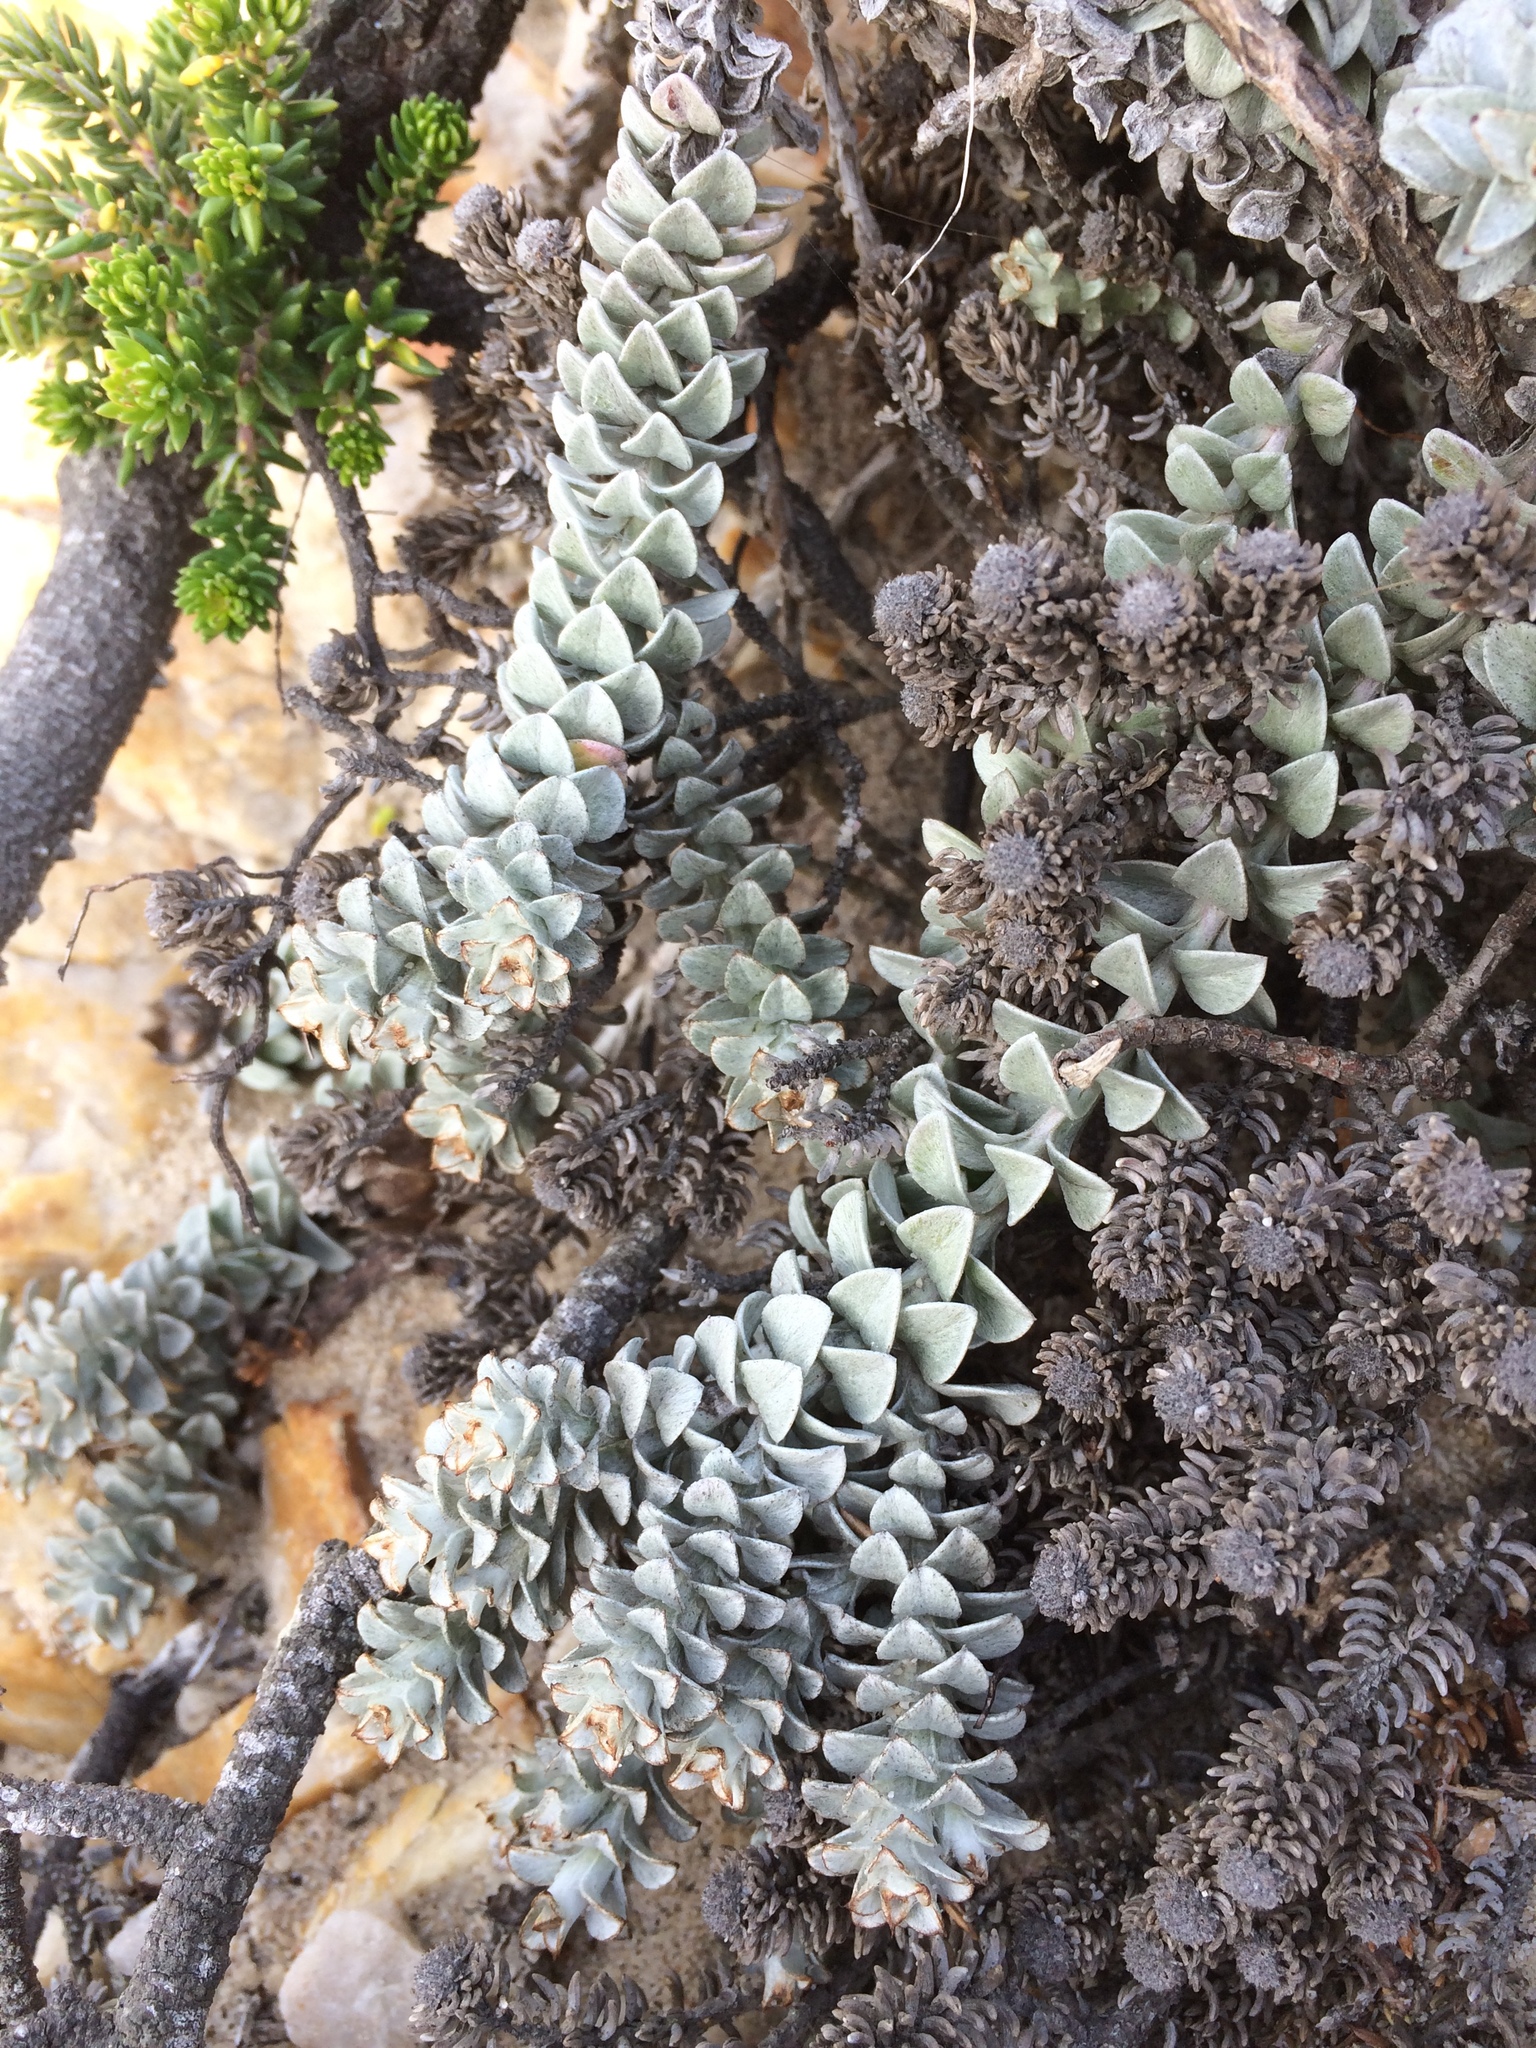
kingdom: Plantae
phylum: Tracheophyta
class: Magnoliopsida
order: Asterales
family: Asteraceae
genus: Helichrysum
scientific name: Helichrysum retortum
